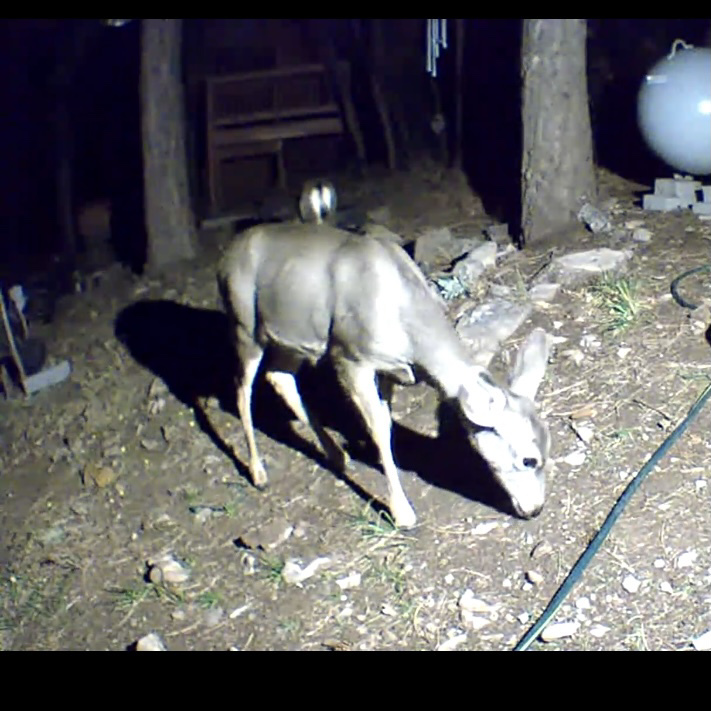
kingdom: Animalia
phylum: Chordata
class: Mammalia
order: Artiodactyla
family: Cervidae
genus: Odocoileus
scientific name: Odocoileus hemionus
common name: Mule deer
